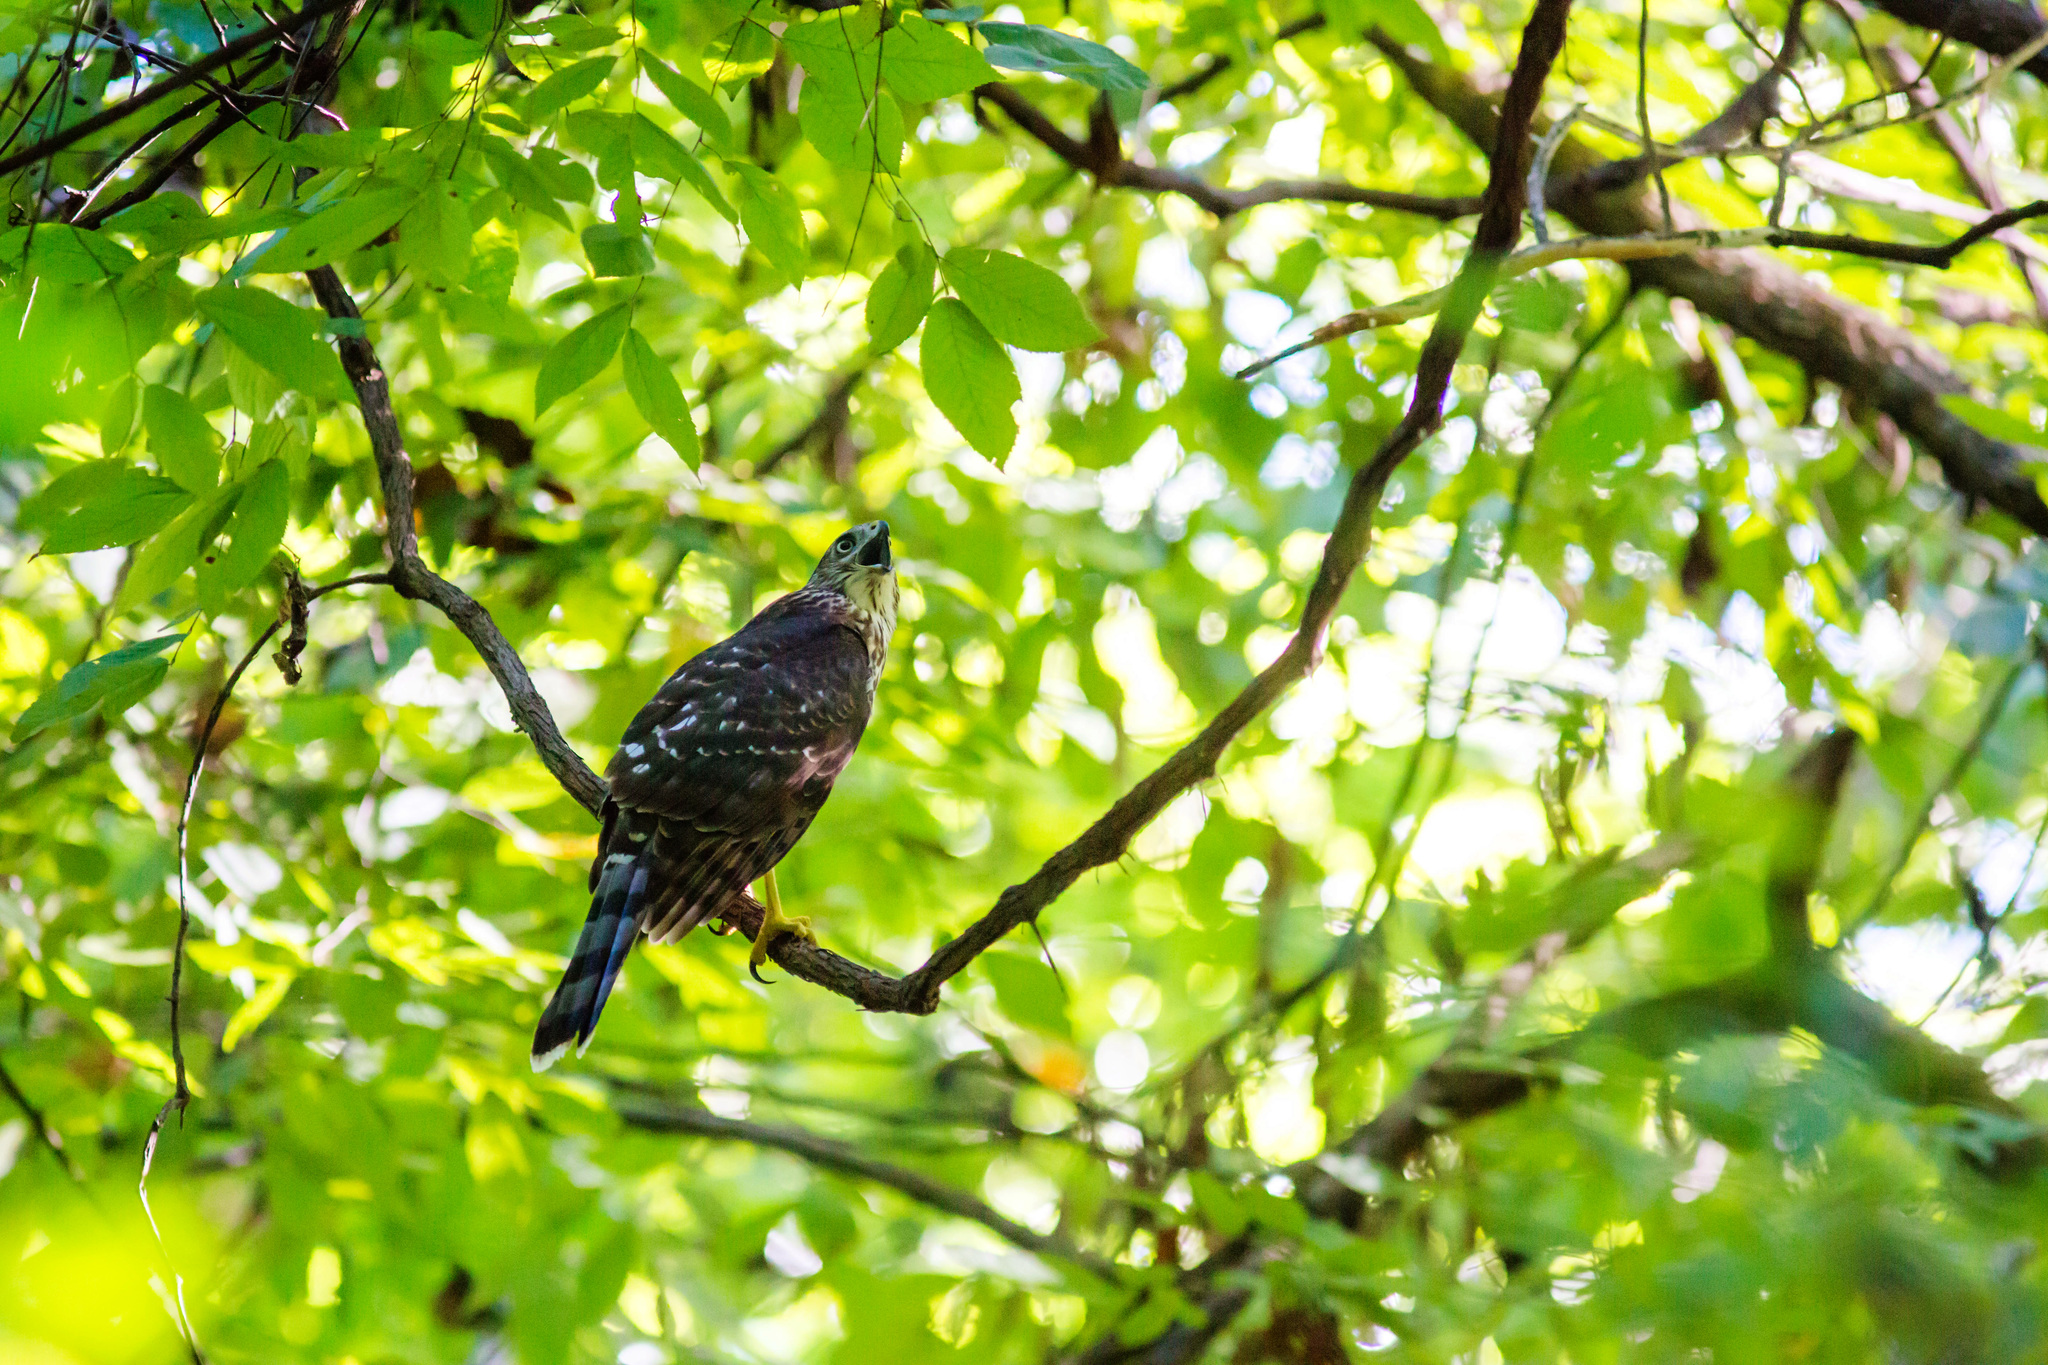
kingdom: Animalia
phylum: Chordata
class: Aves
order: Accipitriformes
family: Accipitridae
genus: Accipiter
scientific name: Accipiter cooperii
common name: Cooper's hawk
